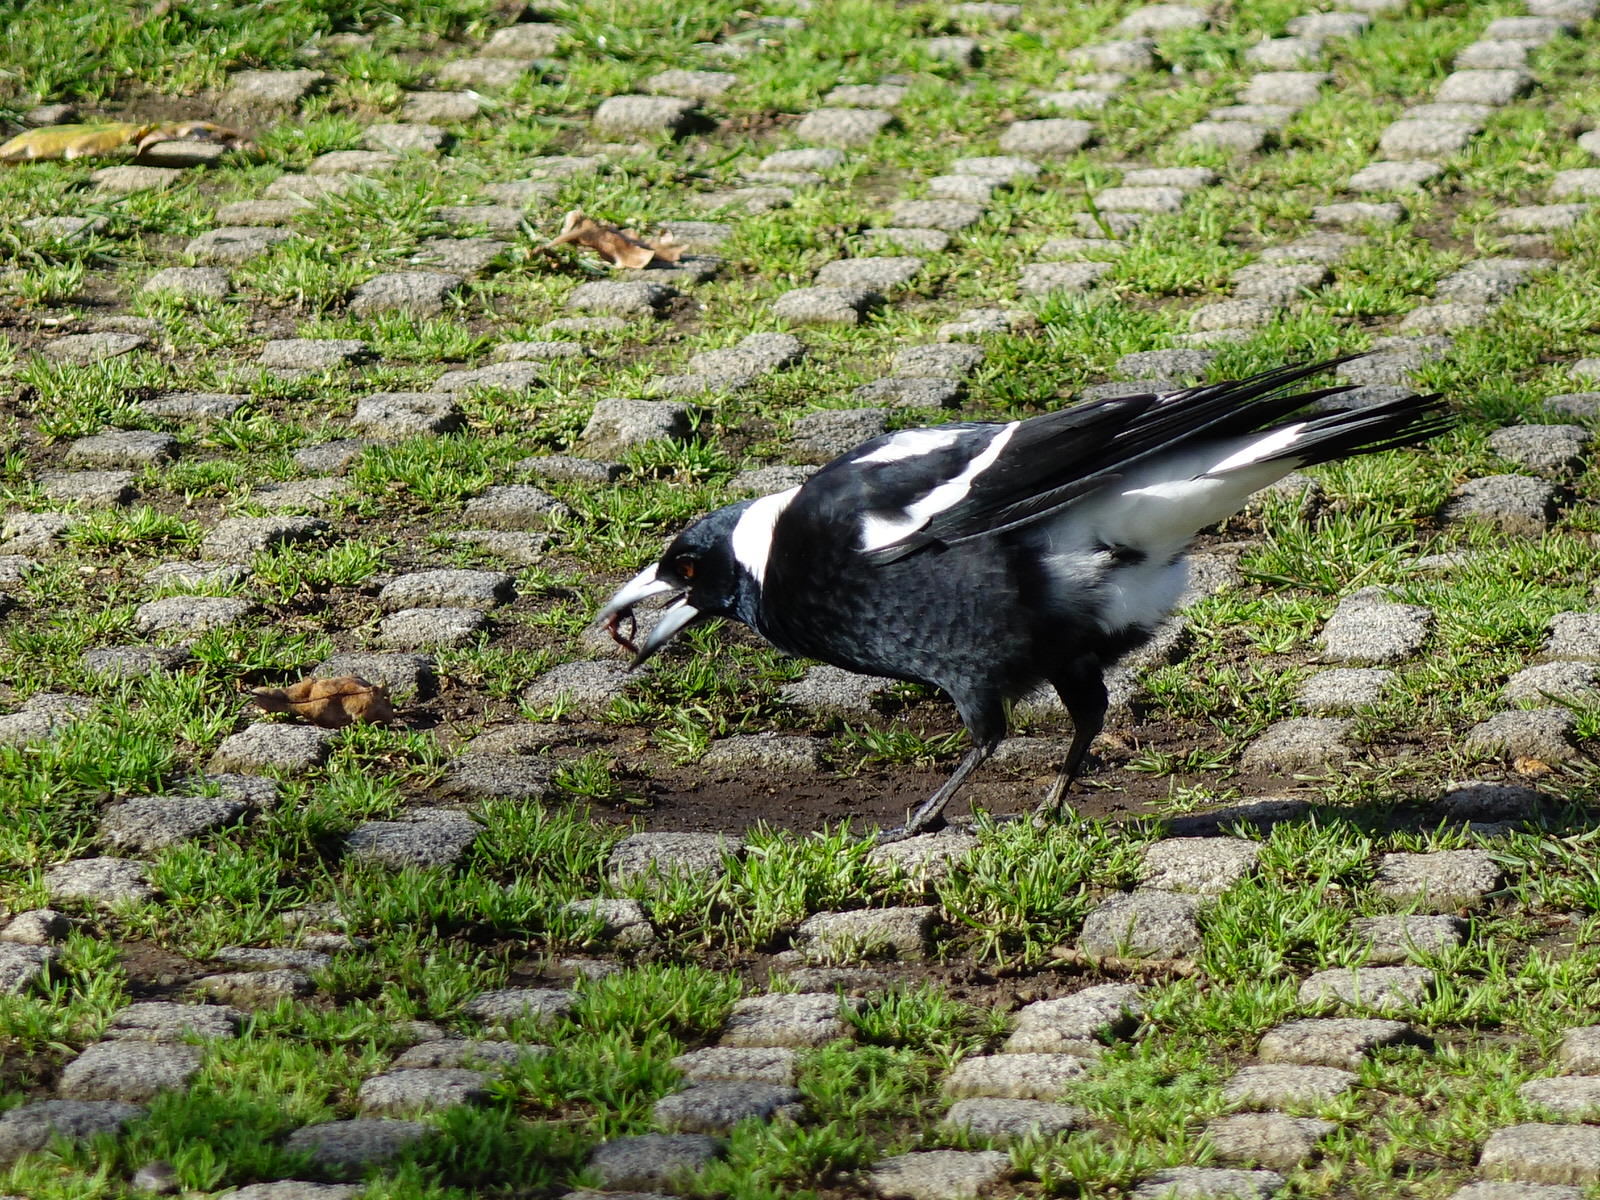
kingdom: Animalia
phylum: Chordata
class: Aves
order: Passeriformes
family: Cracticidae
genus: Gymnorhina
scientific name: Gymnorhina tibicen
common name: Australian magpie
